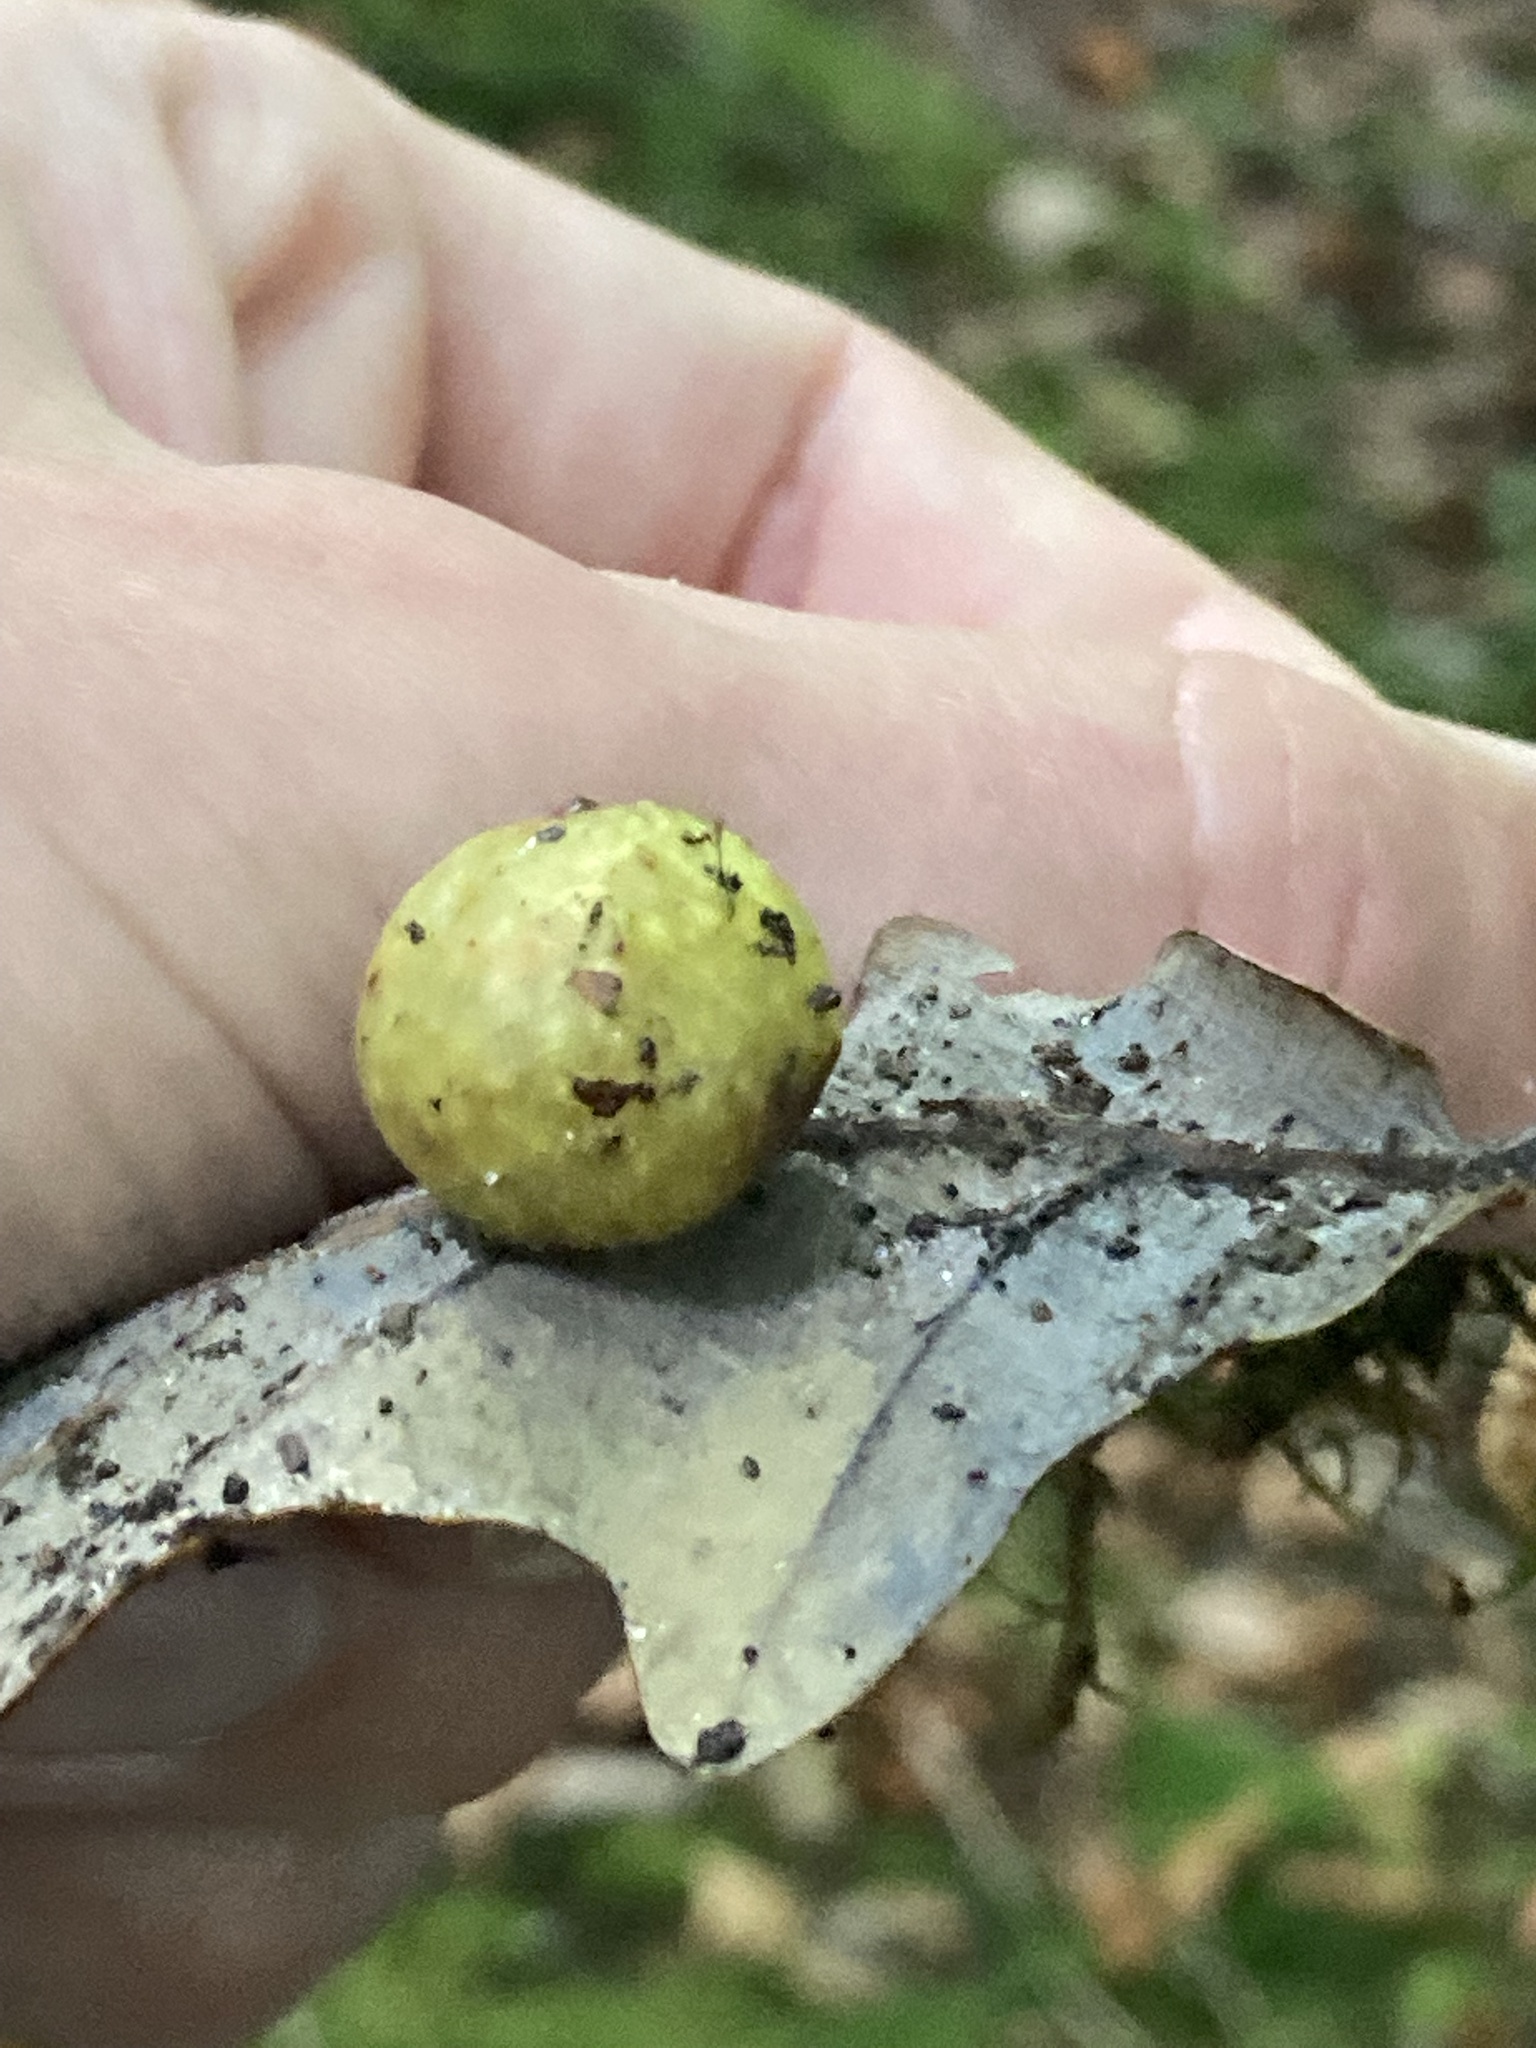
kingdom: Animalia
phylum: Arthropoda
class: Insecta
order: Hymenoptera
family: Cynipidae
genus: Cynips
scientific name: Cynips quercusfolii
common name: Cherry gall
